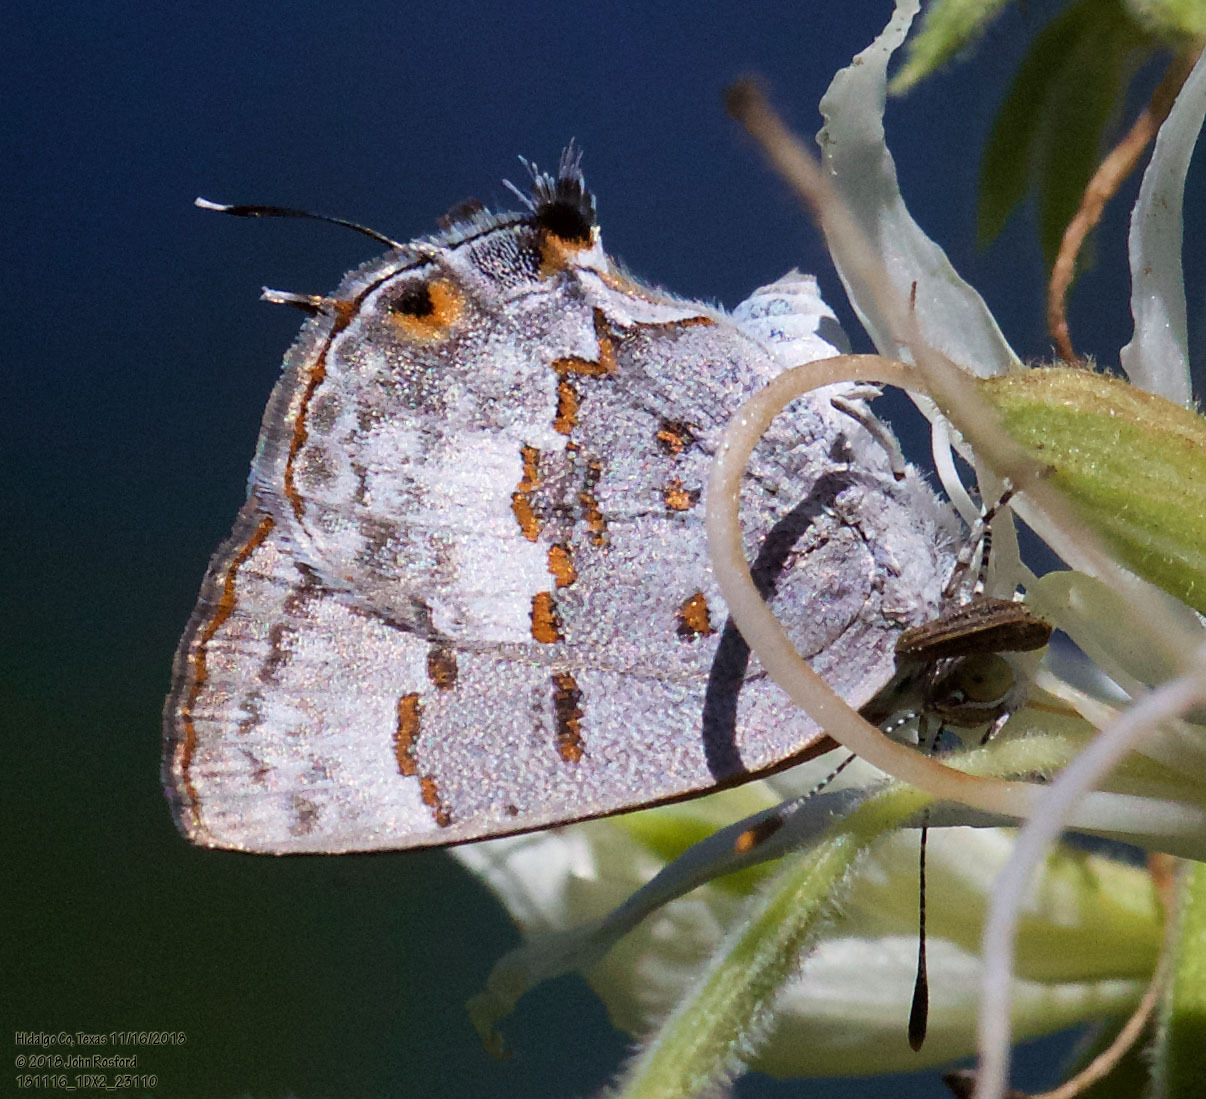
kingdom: Animalia
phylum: Arthropoda
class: Insecta
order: Lepidoptera
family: Lycaenidae
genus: Ministrymon
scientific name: Ministrymon clytie
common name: Clytie ministreak
